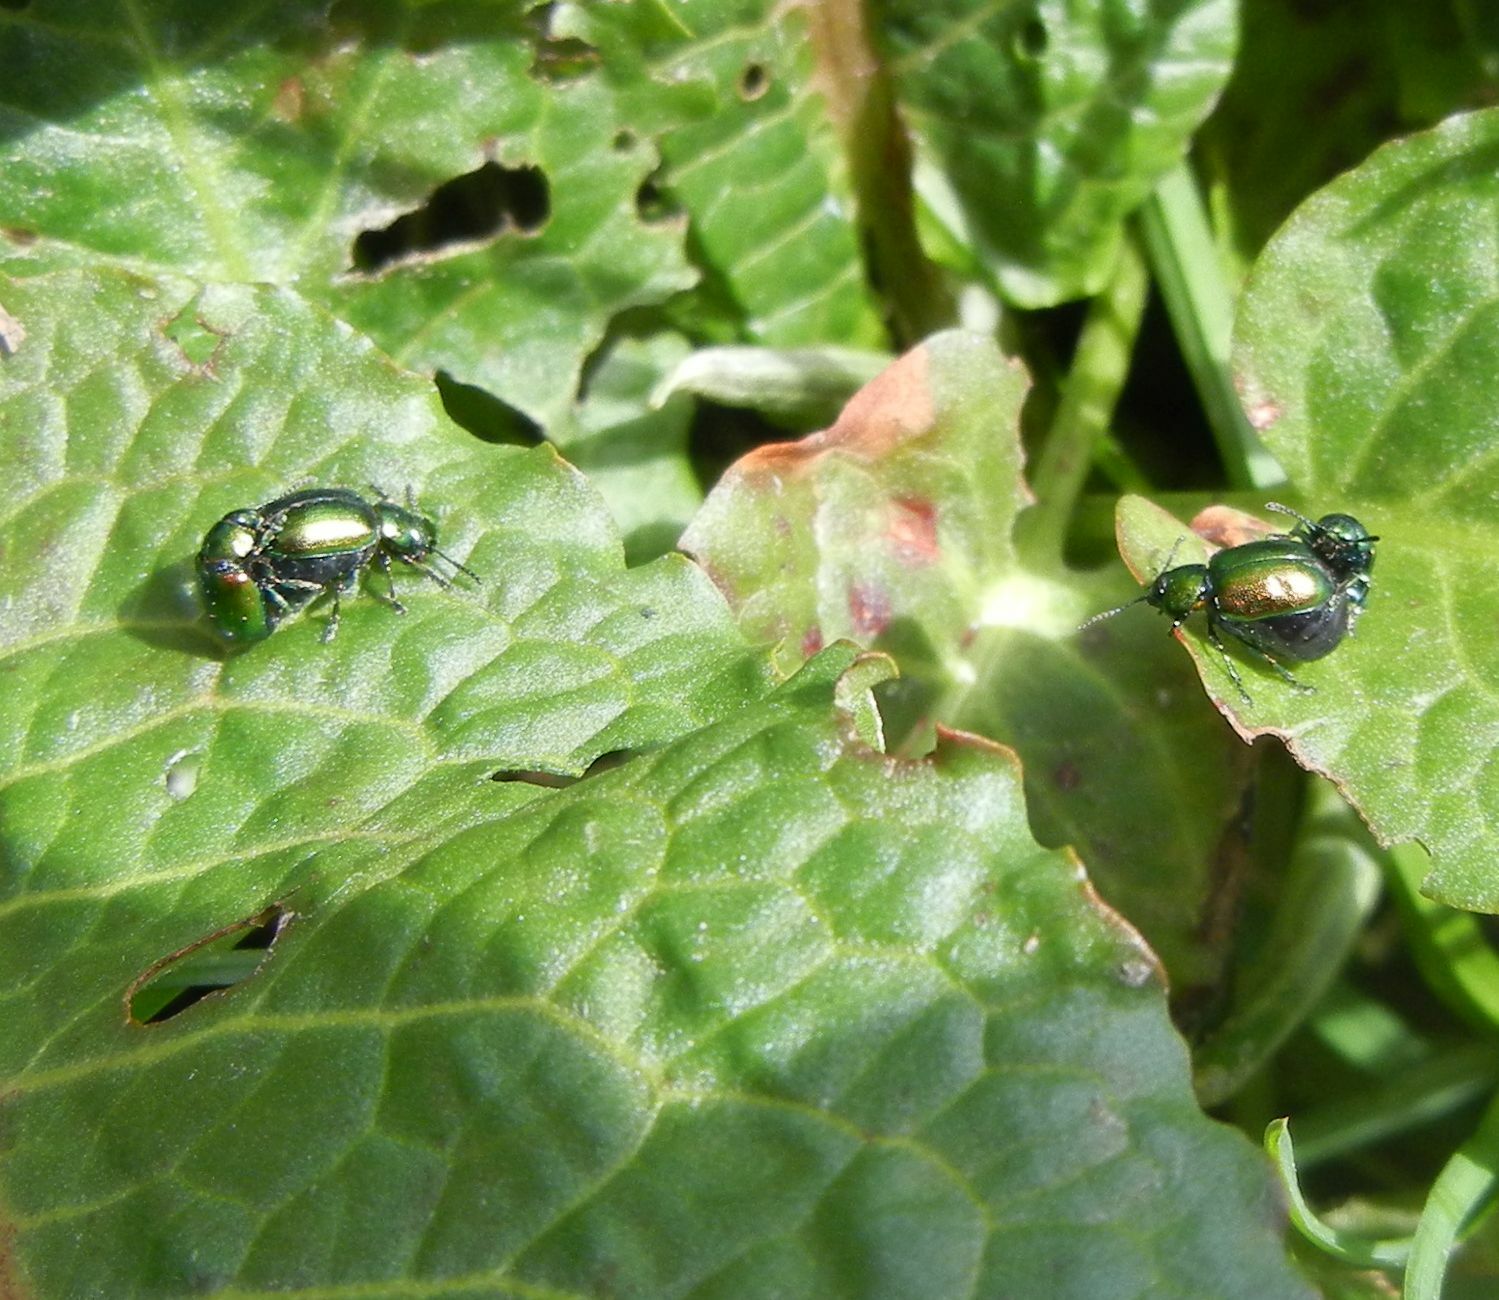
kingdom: Animalia
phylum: Arthropoda
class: Insecta
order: Coleoptera
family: Chrysomelidae
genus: Gastrophysa
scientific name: Gastrophysa viridula
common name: Green dock beetle
